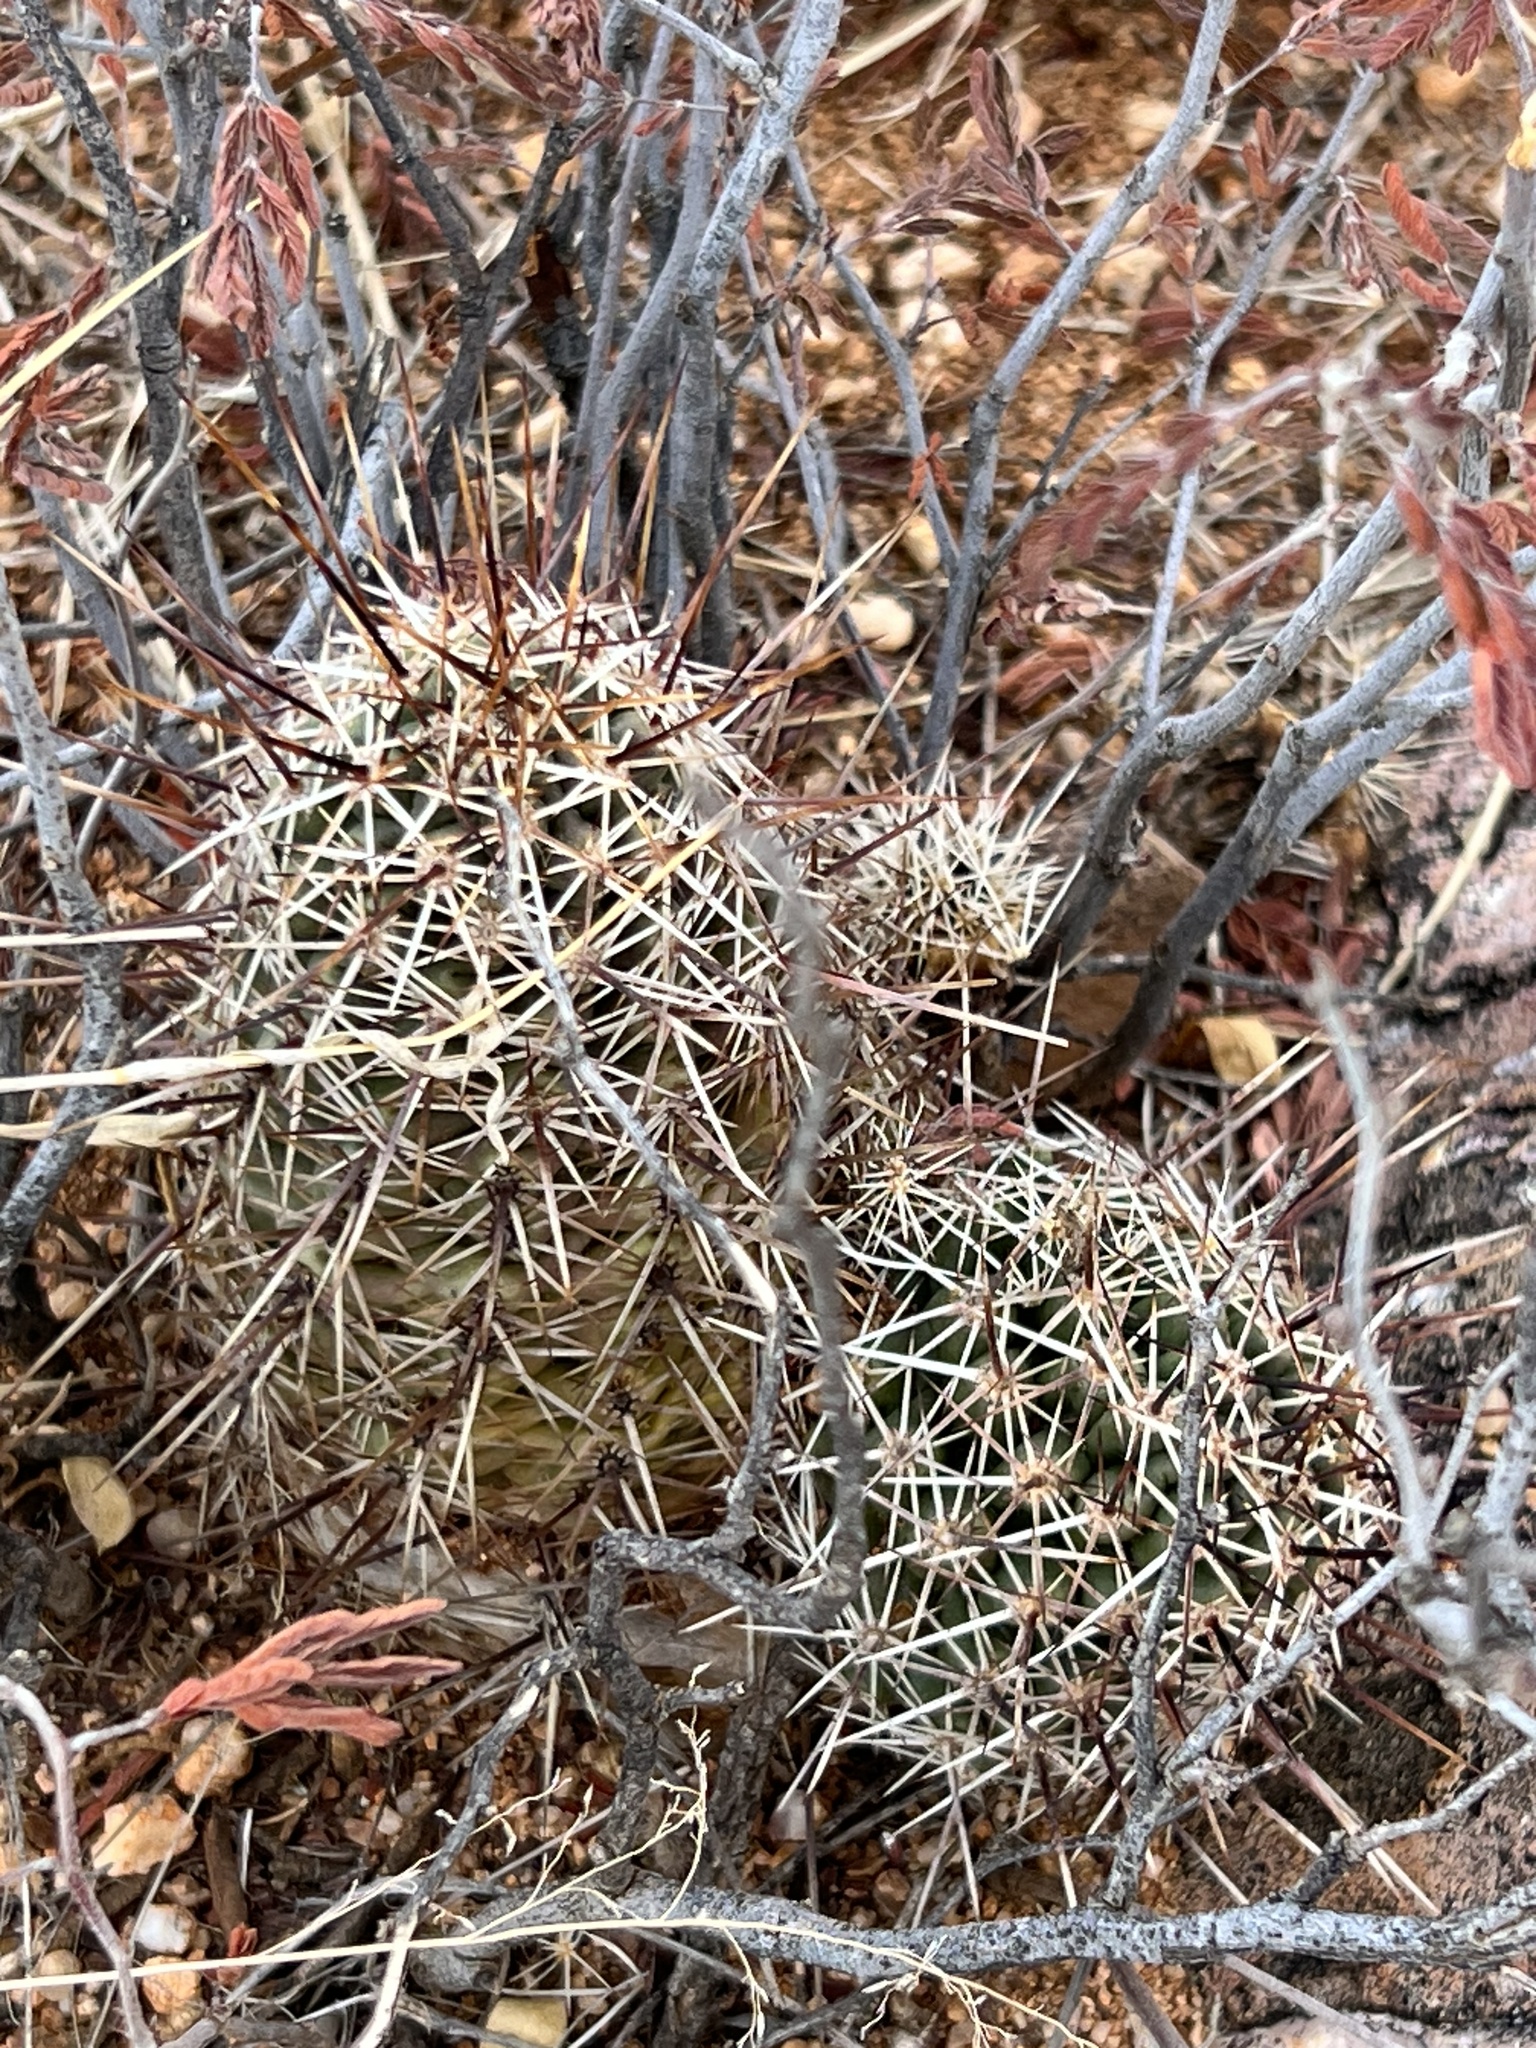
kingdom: Plantae
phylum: Tracheophyta
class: Magnoliopsida
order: Caryophyllales
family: Cactaceae
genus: Echinocereus
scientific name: Echinocereus fasciculatus
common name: Bundle hedgehog
